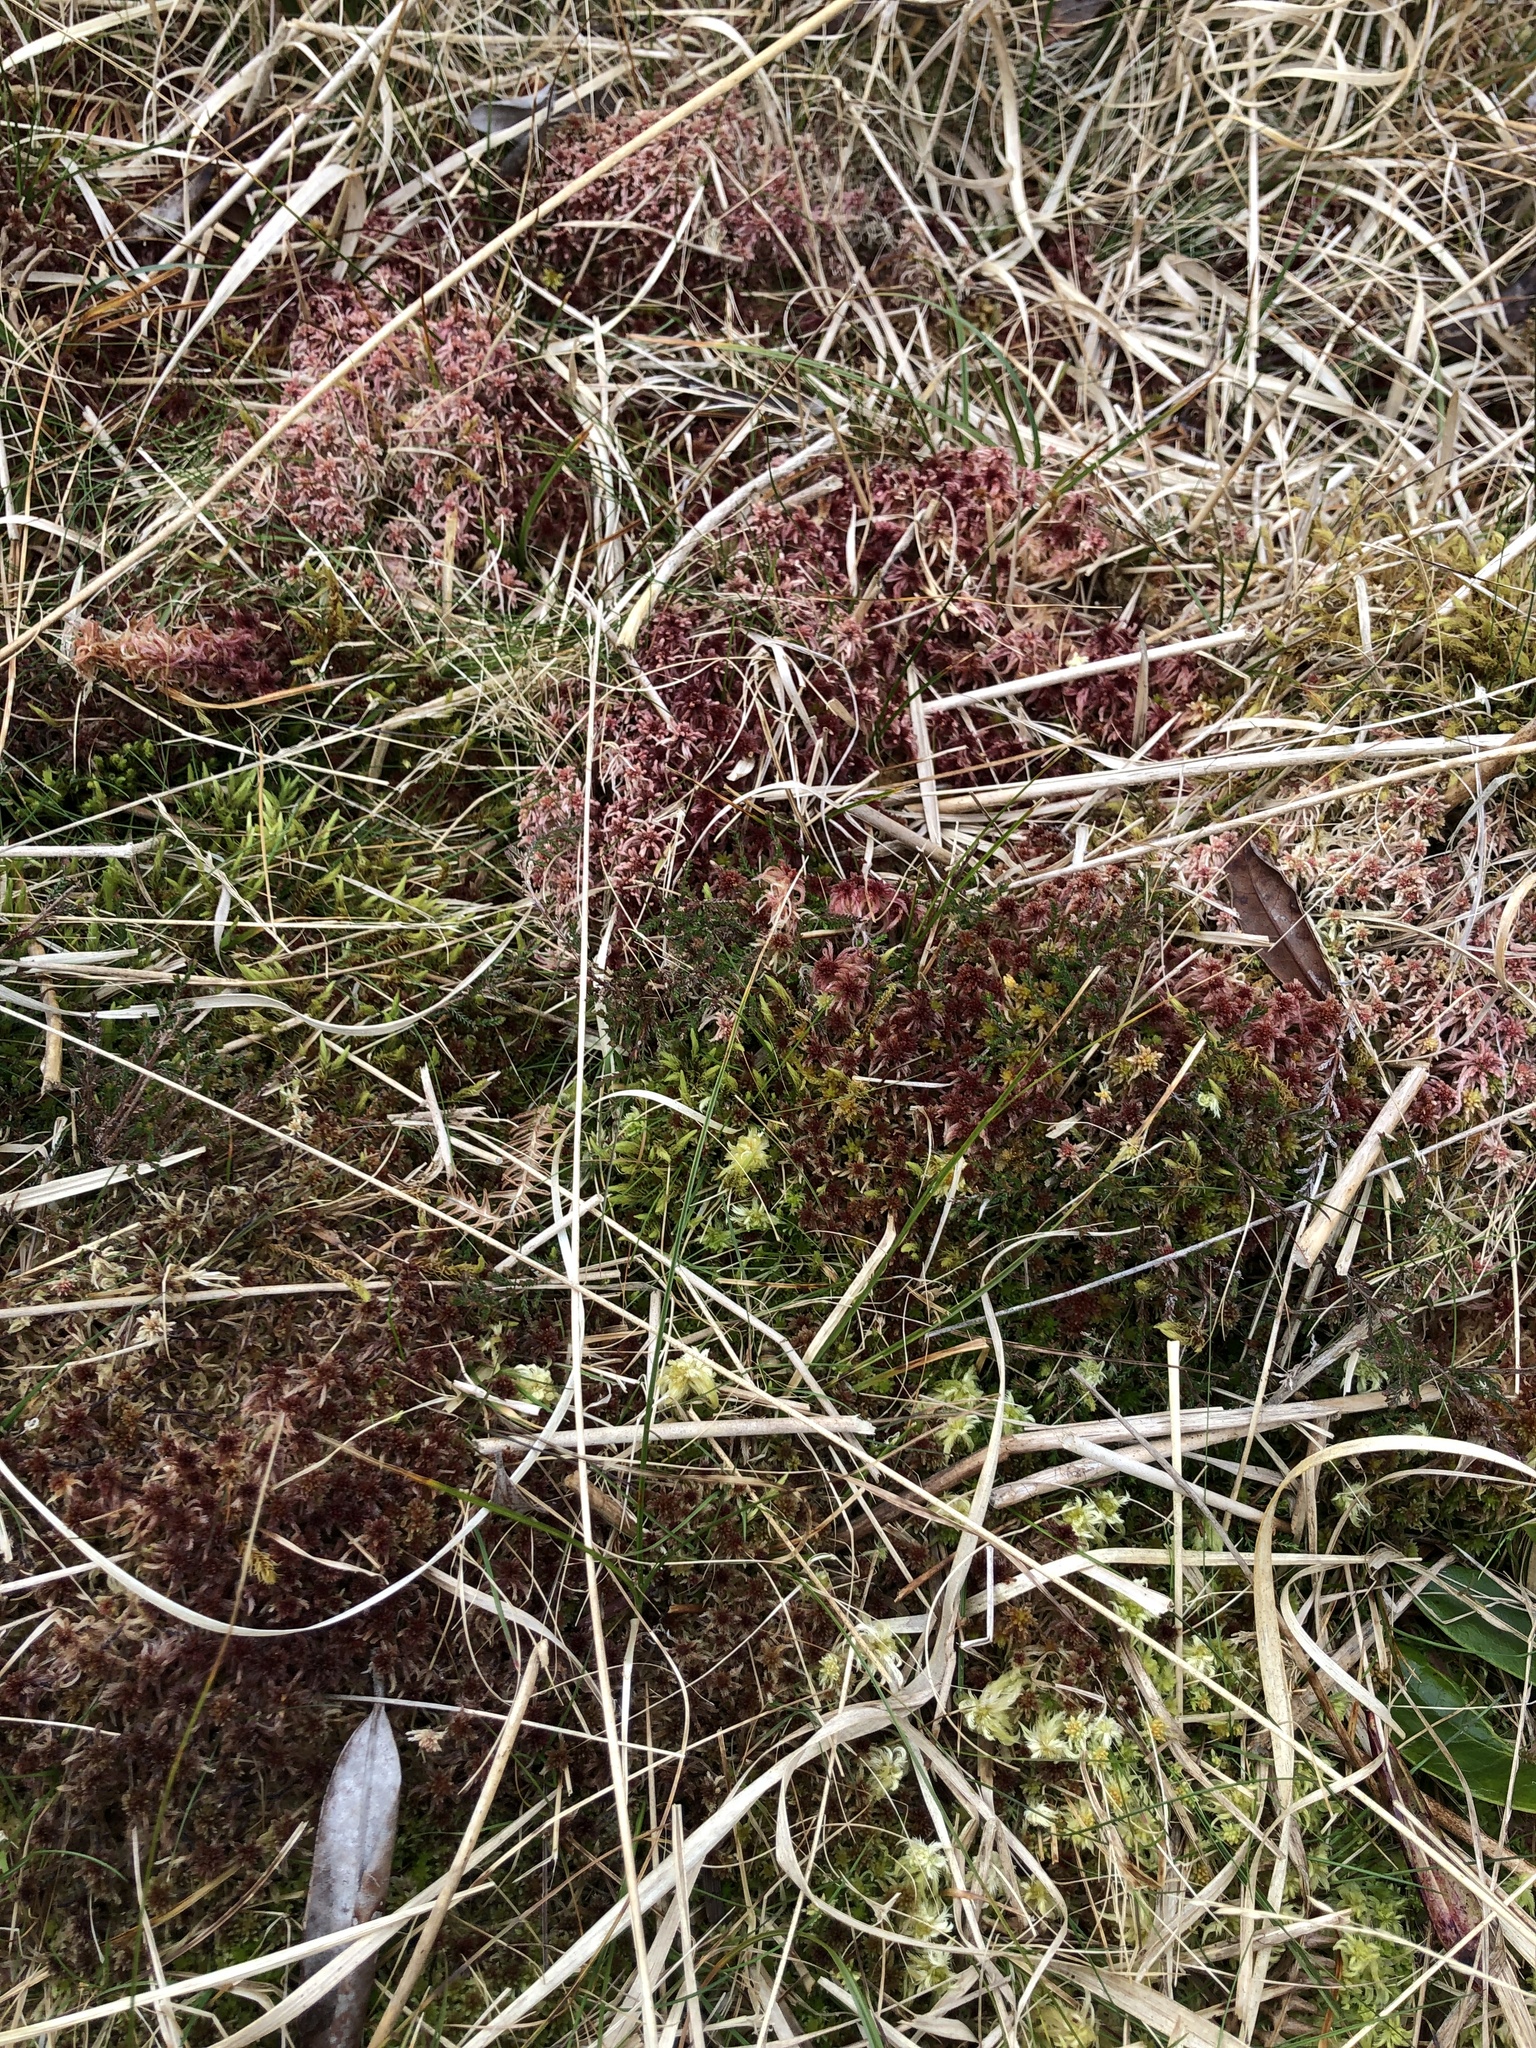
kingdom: Plantae
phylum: Bryophyta
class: Sphagnopsida
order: Sphagnales
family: Sphagnaceae
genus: Sphagnum
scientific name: Sphagnum rubellum
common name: Red peat moss
